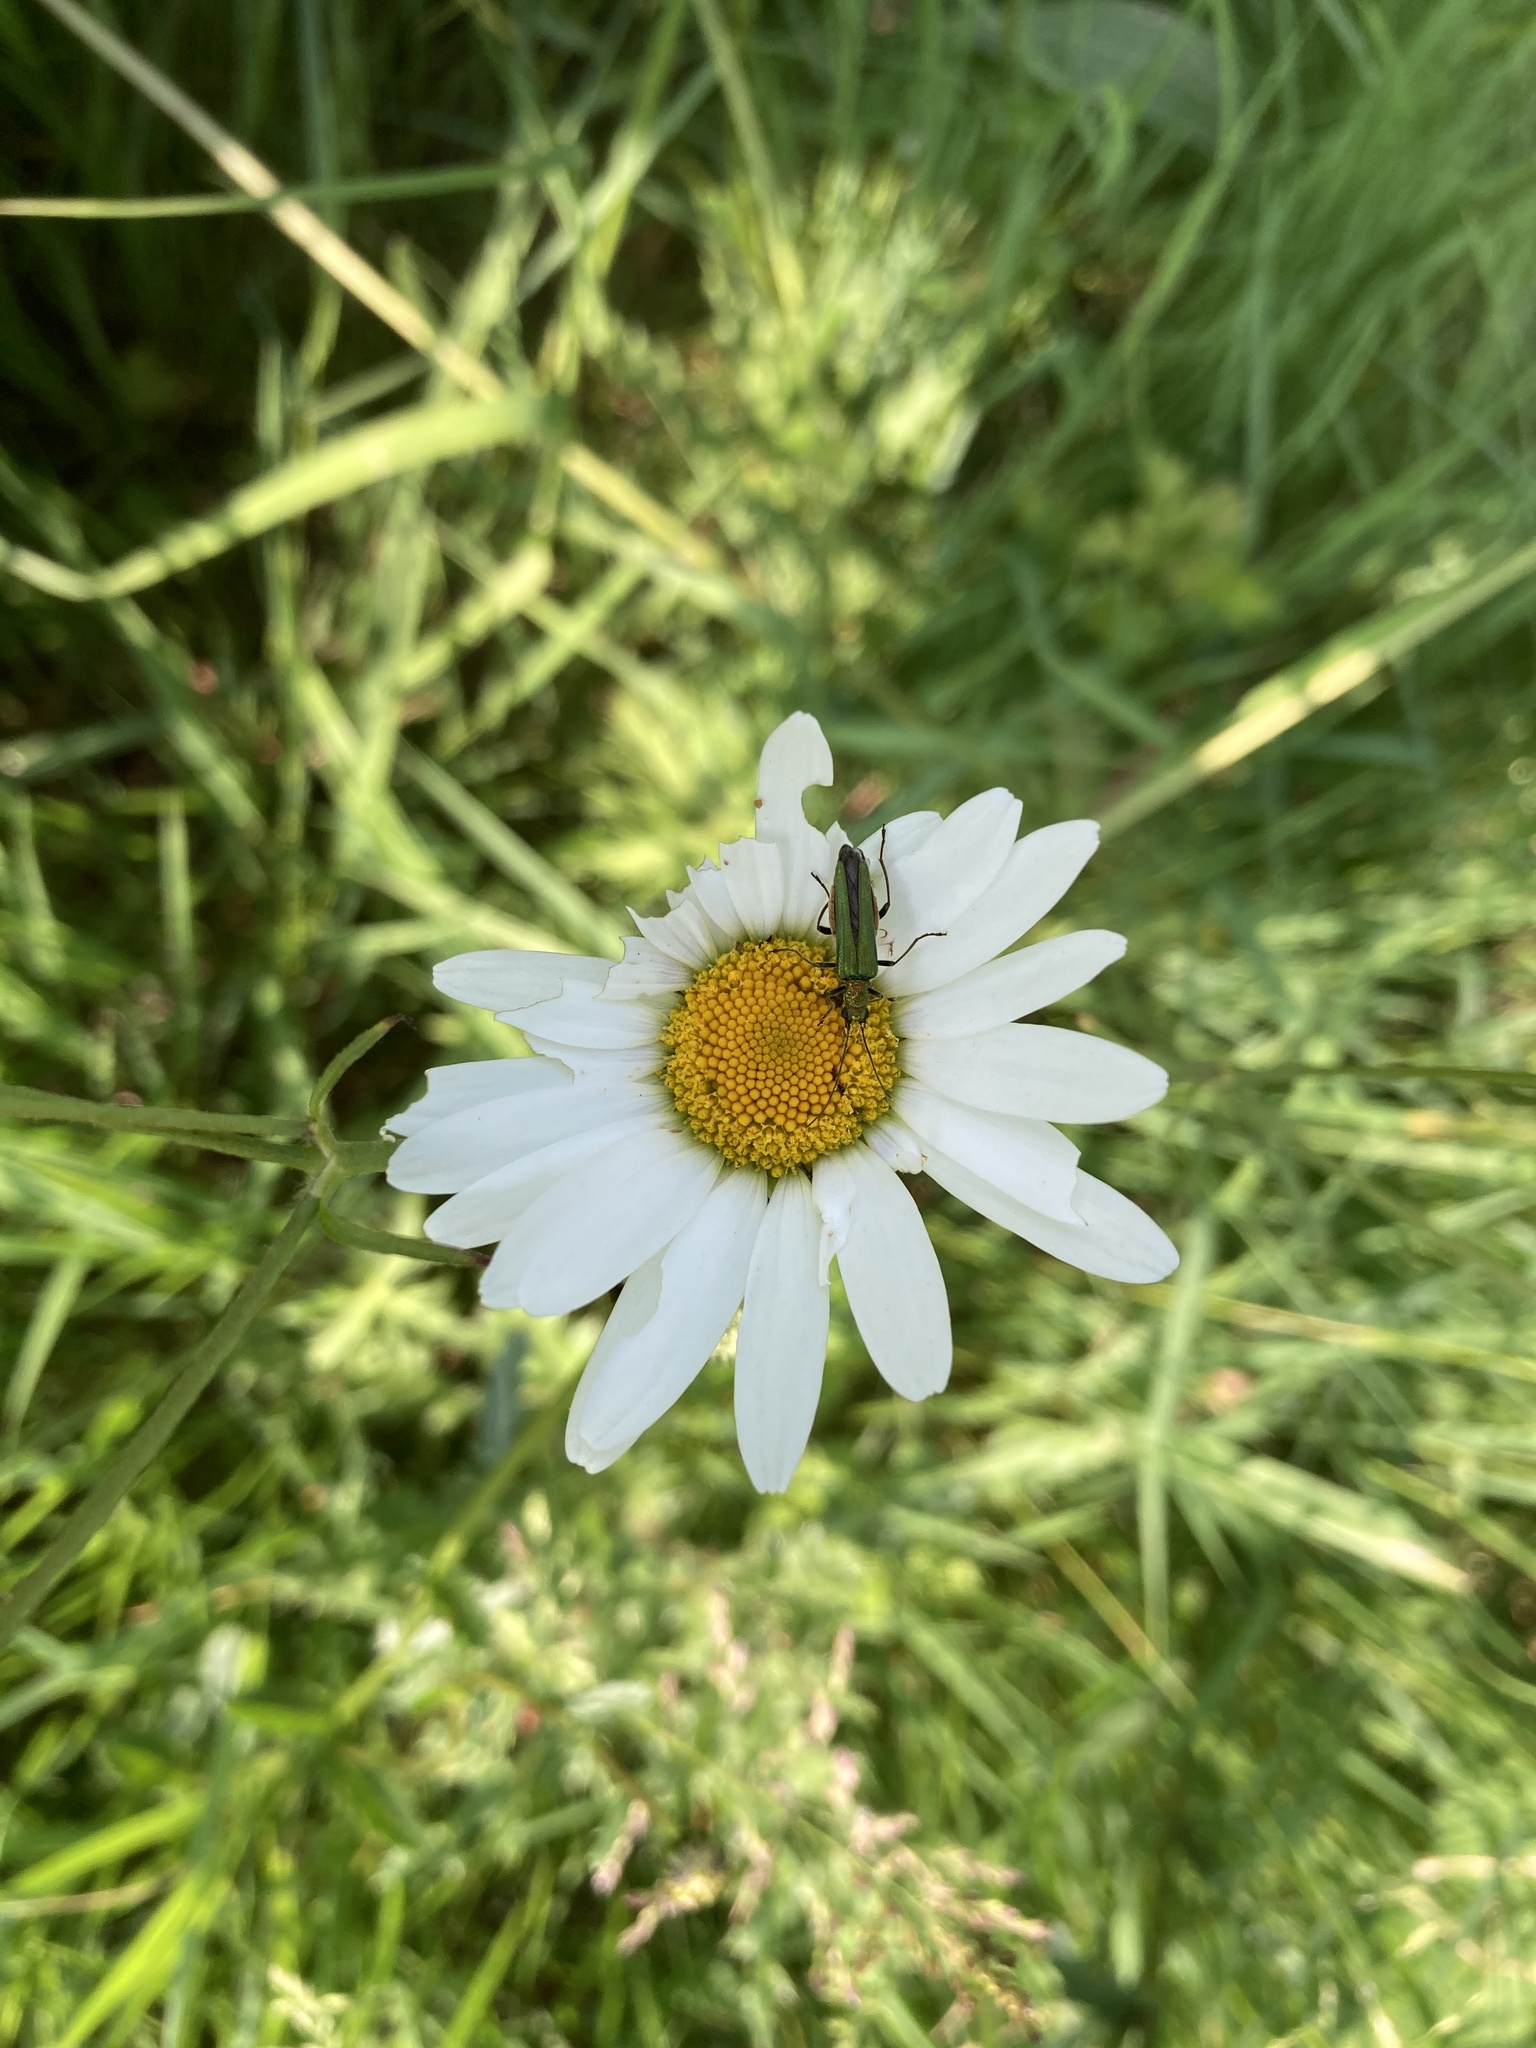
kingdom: Animalia
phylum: Arthropoda
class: Insecta
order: Coleoptera
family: Oedemeridae
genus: Oedemera
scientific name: Oedemera nobilis
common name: Swollen-thighed beetle
